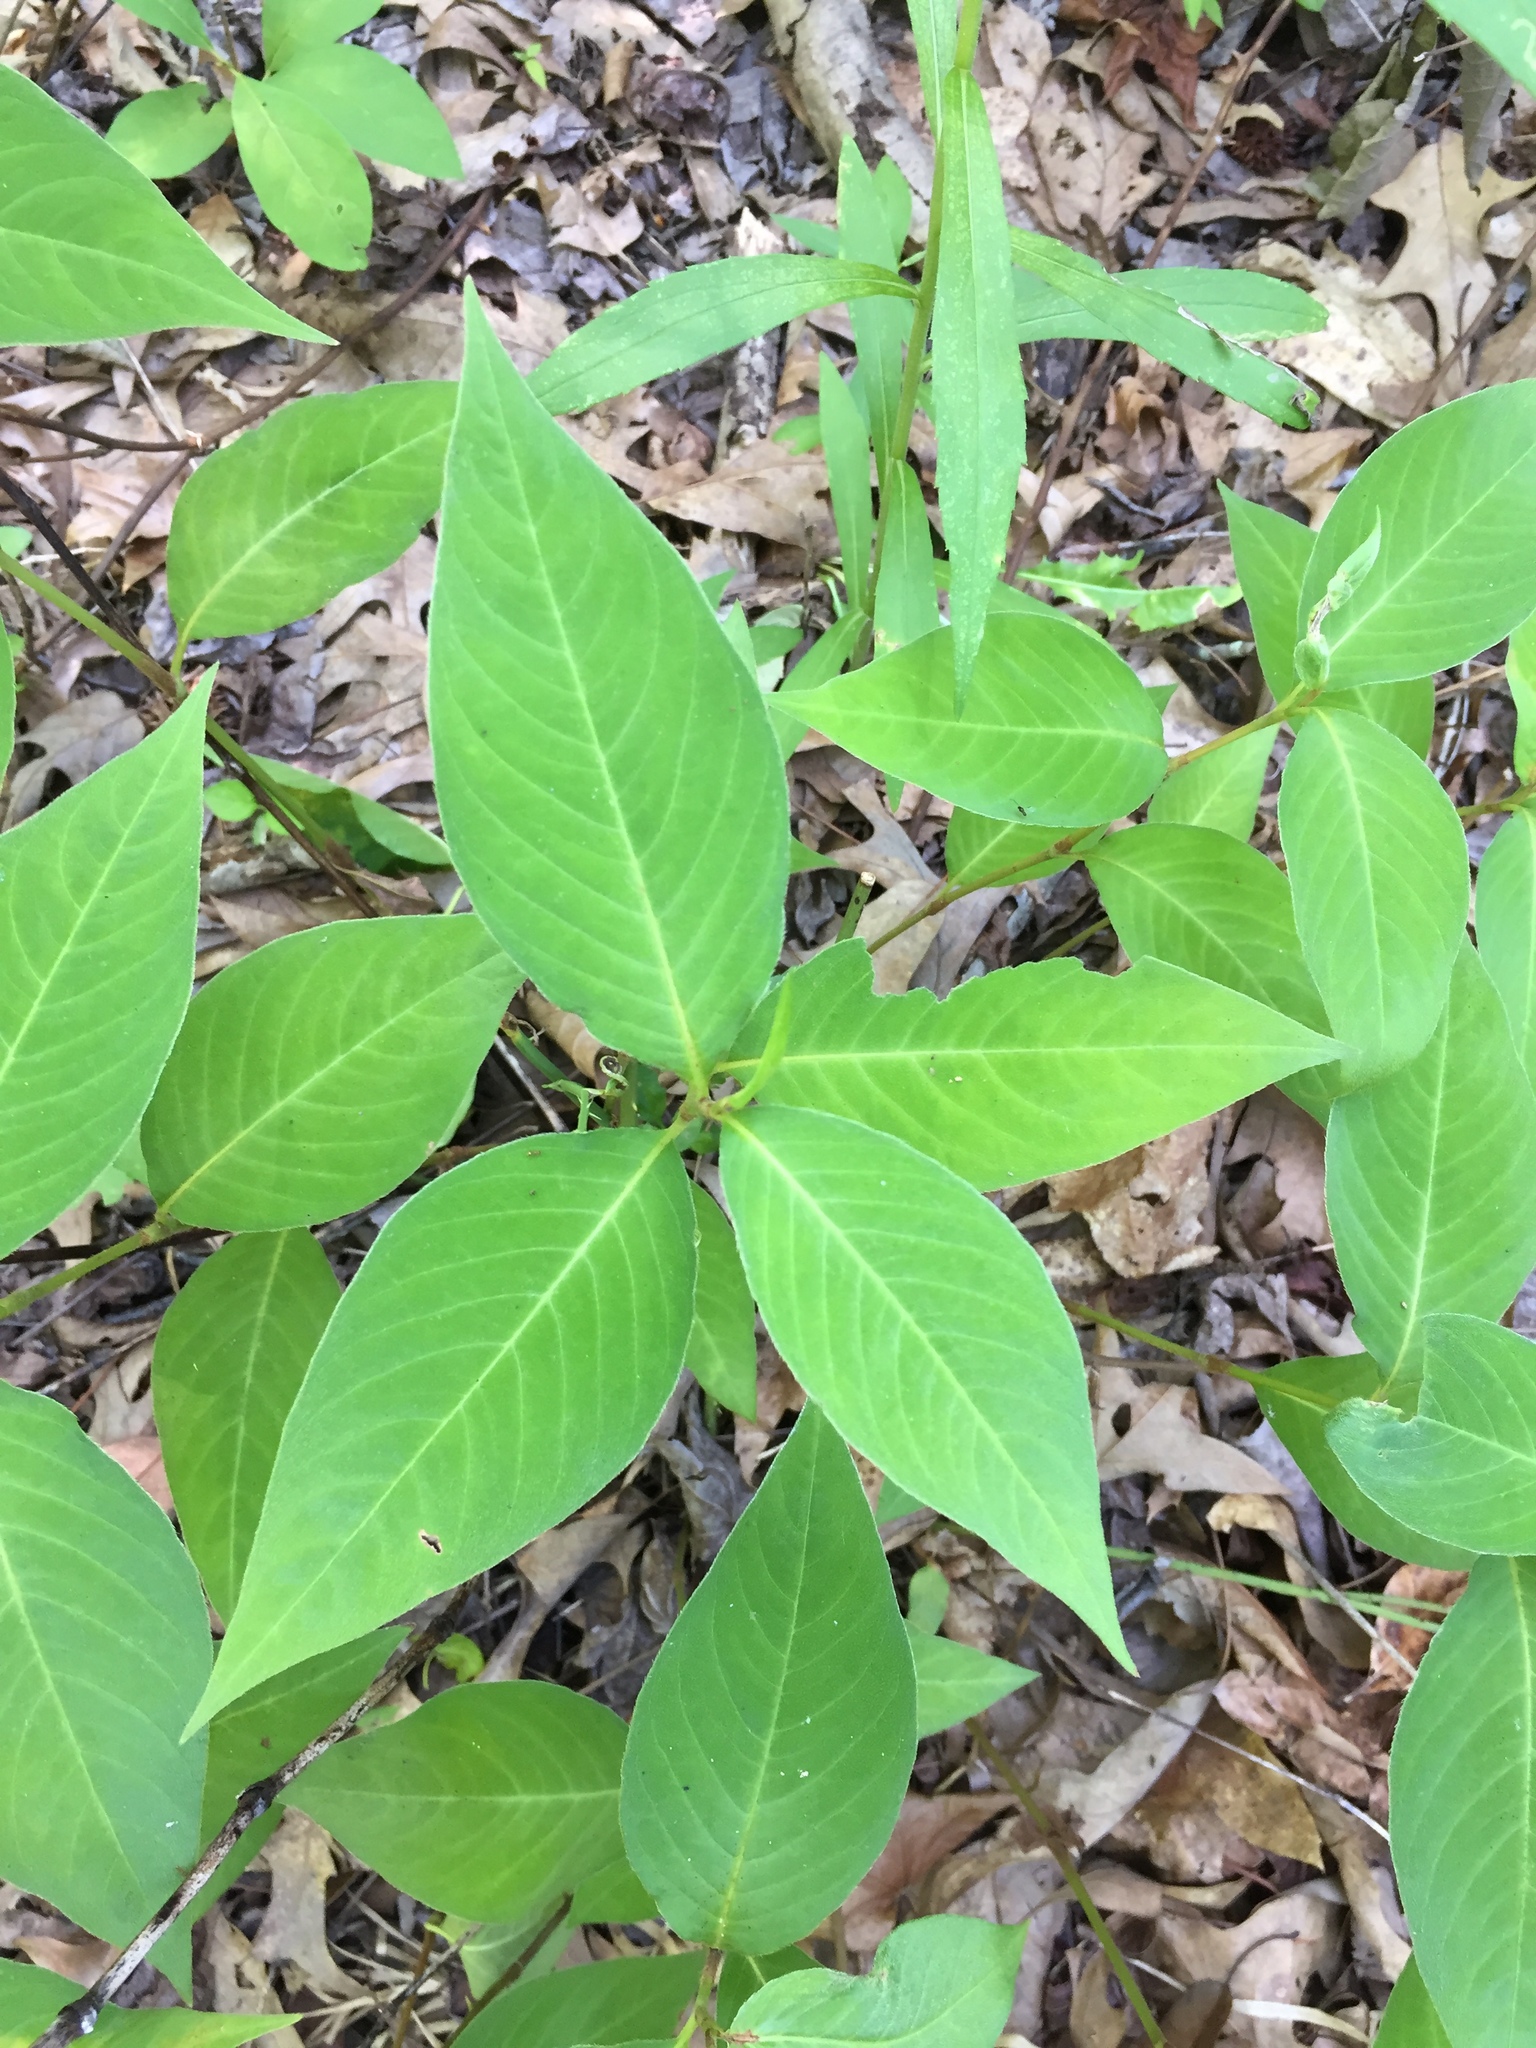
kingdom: Plantae
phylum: Tracheophyta
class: Magnoliopsida
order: Caryophyllales
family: Polygonaceae
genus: Persicaria
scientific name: Persicaria virginiana
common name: Jumpseed
